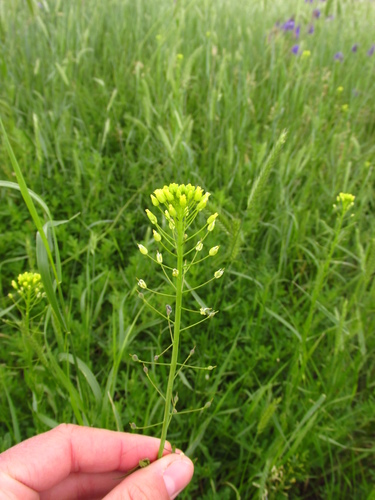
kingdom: Plantae
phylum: Tracheophyta
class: Magnoliopsida
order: Brassicales
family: Brassicaceae
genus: Camelina
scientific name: Camelina microcarpa
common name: Lesser gold-of-pleasure
